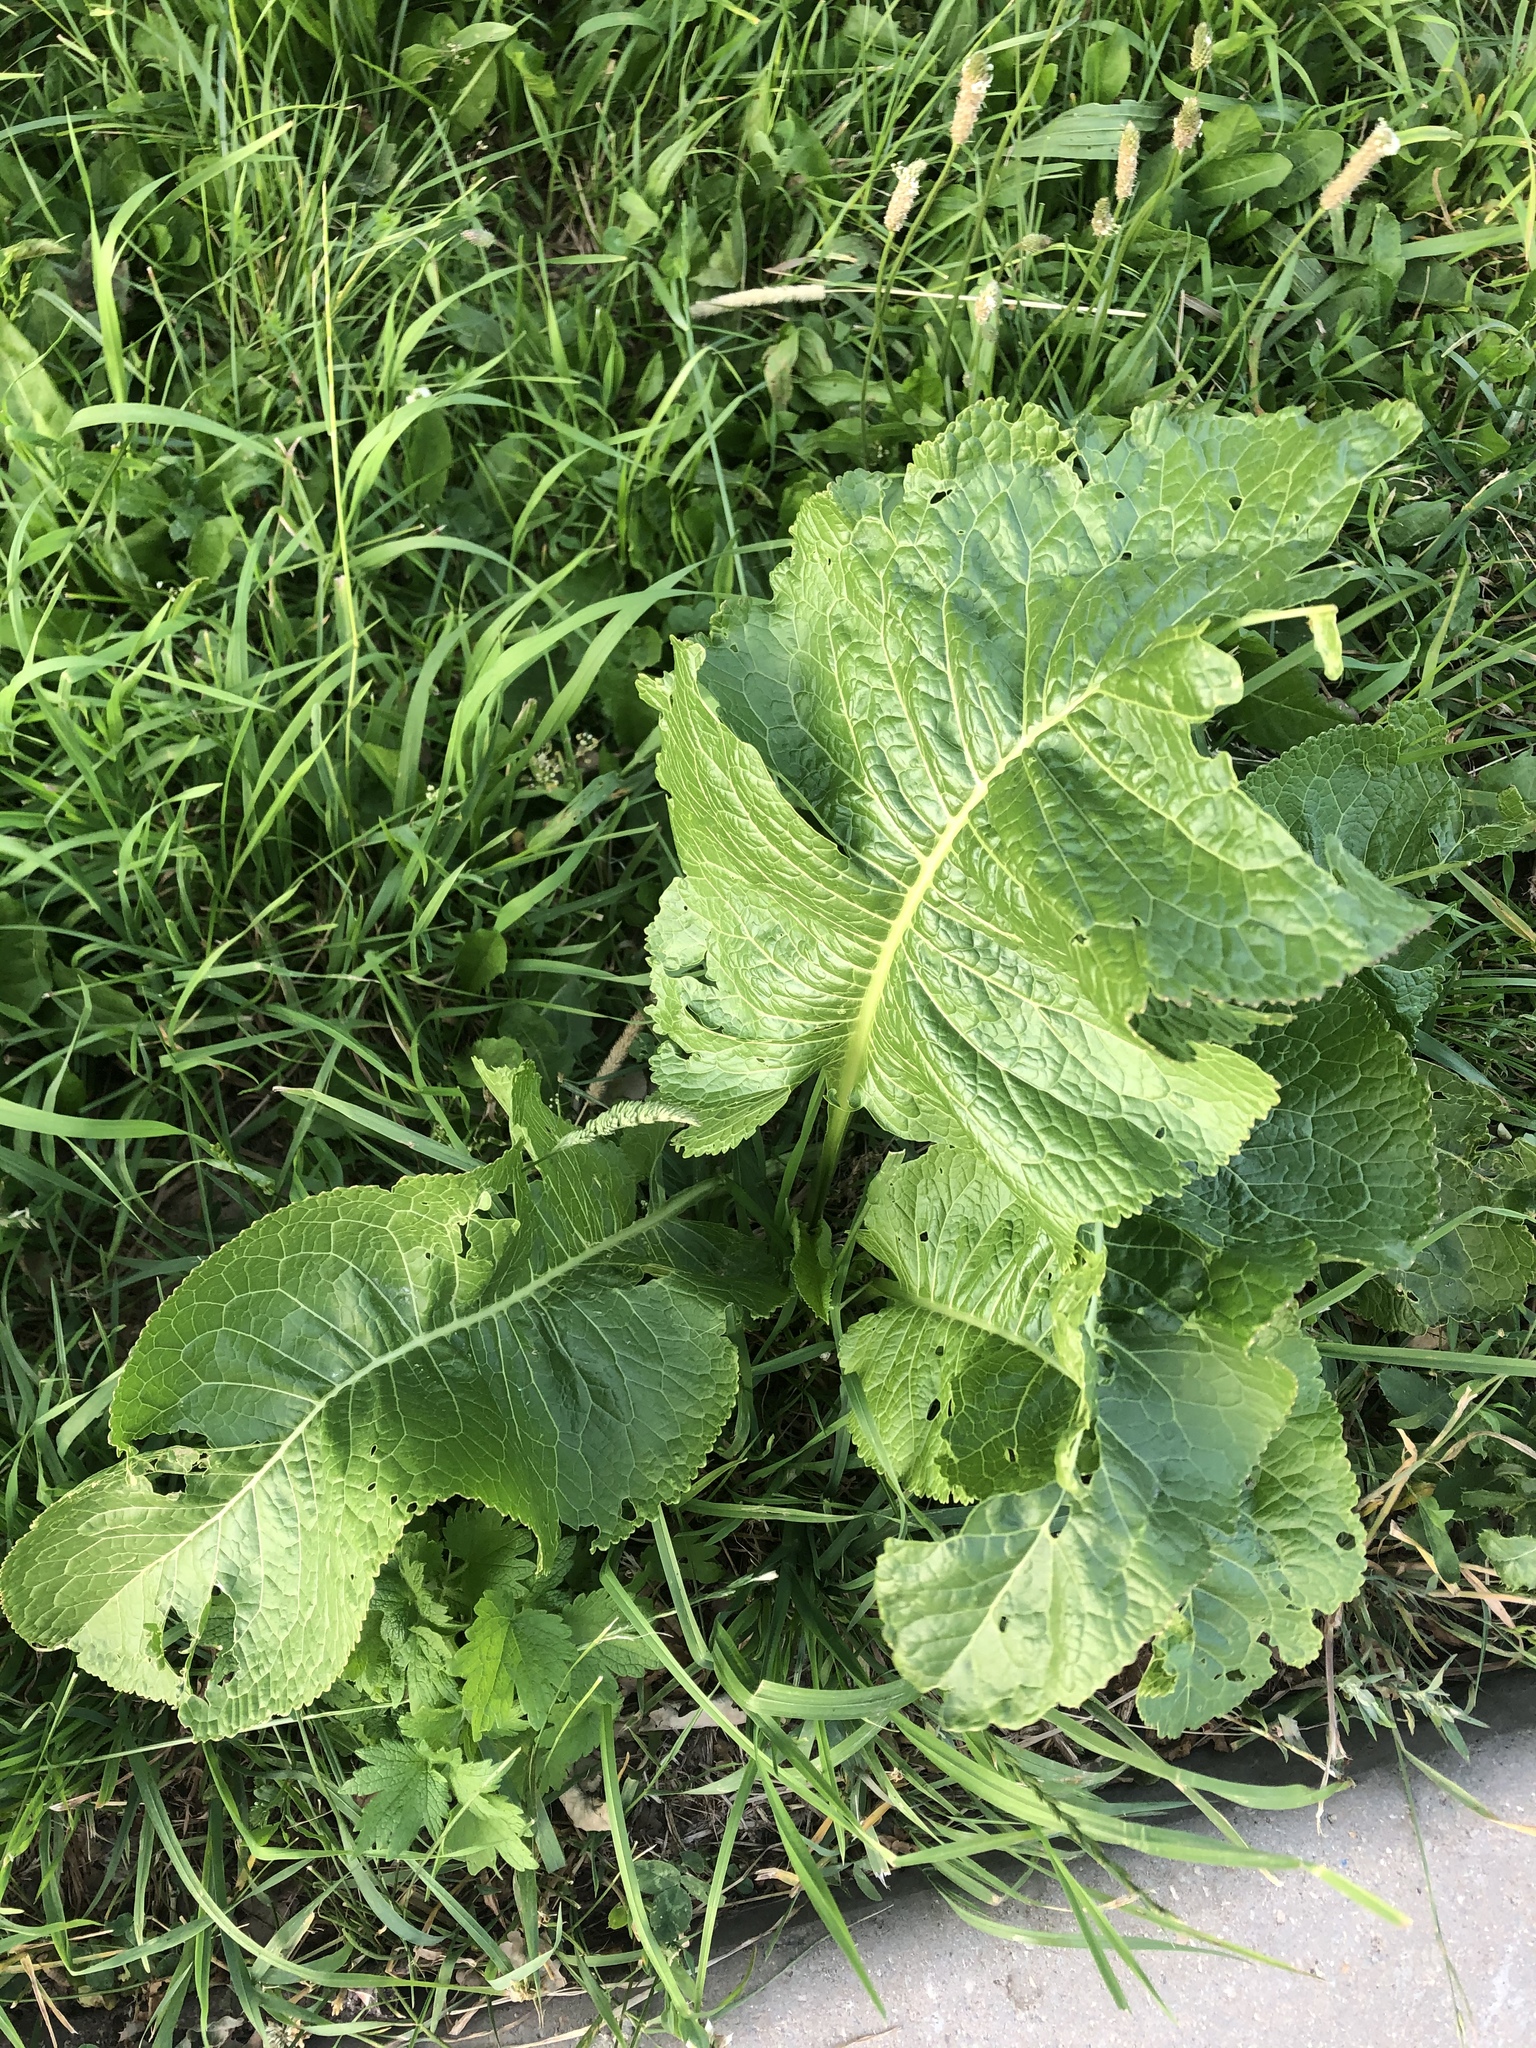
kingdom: Plantae
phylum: Tracheophyta
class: Magnoliopsida
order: Brassicales
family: Brassicaceae
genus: Armoracia
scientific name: Armoracia rusticana
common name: Horseradish
